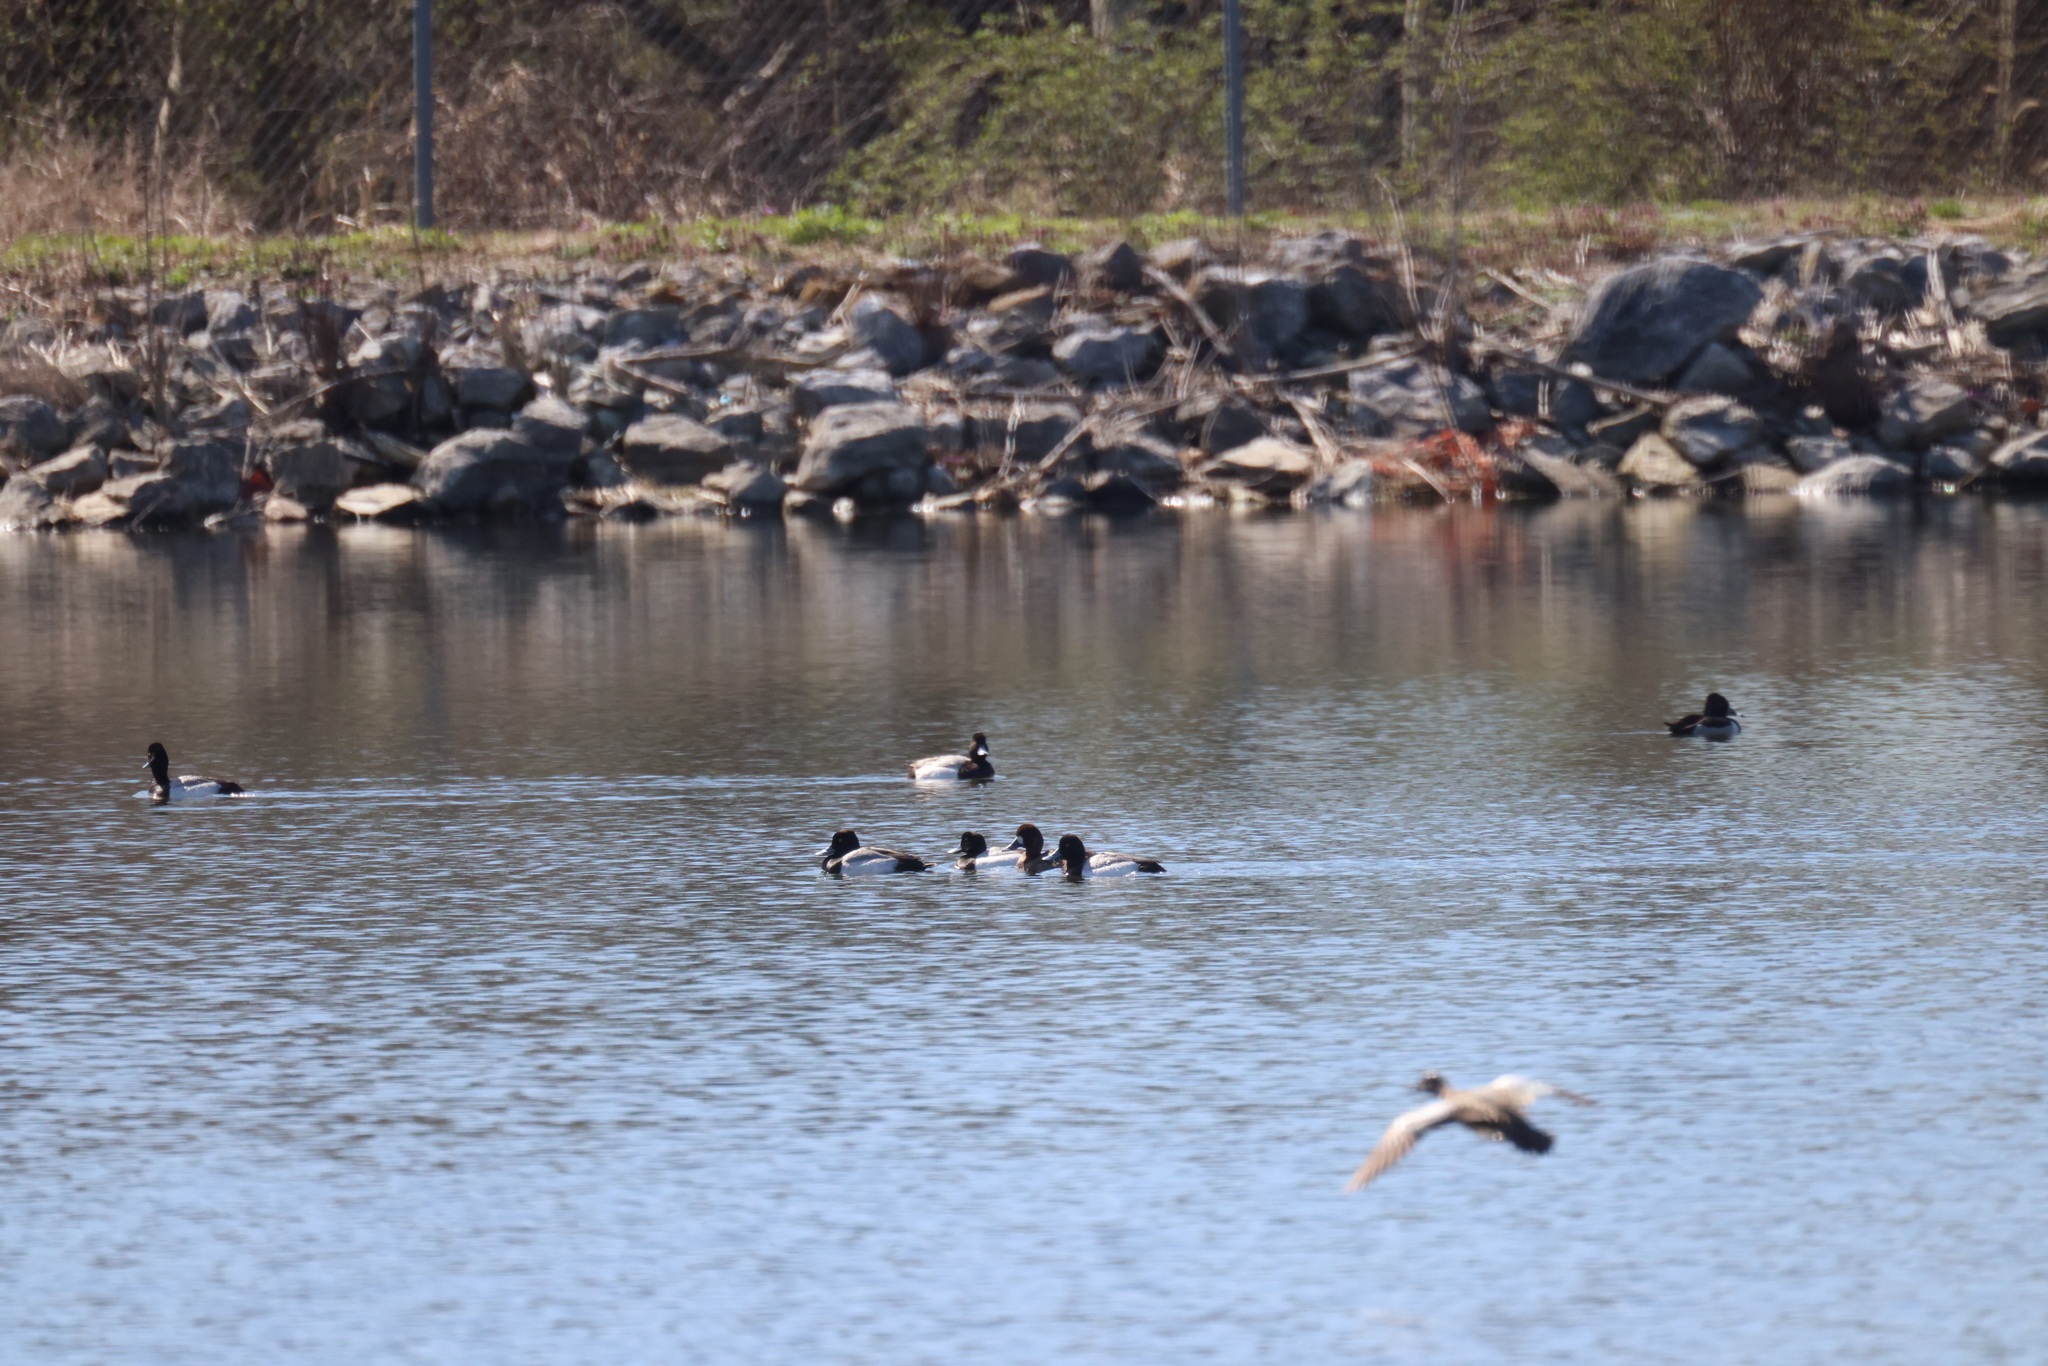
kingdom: Animalia
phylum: Chordata
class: Aves
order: Anseriformes
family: Anatidae
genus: Aythya
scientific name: Aythya collaris
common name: Ring-necked duck
